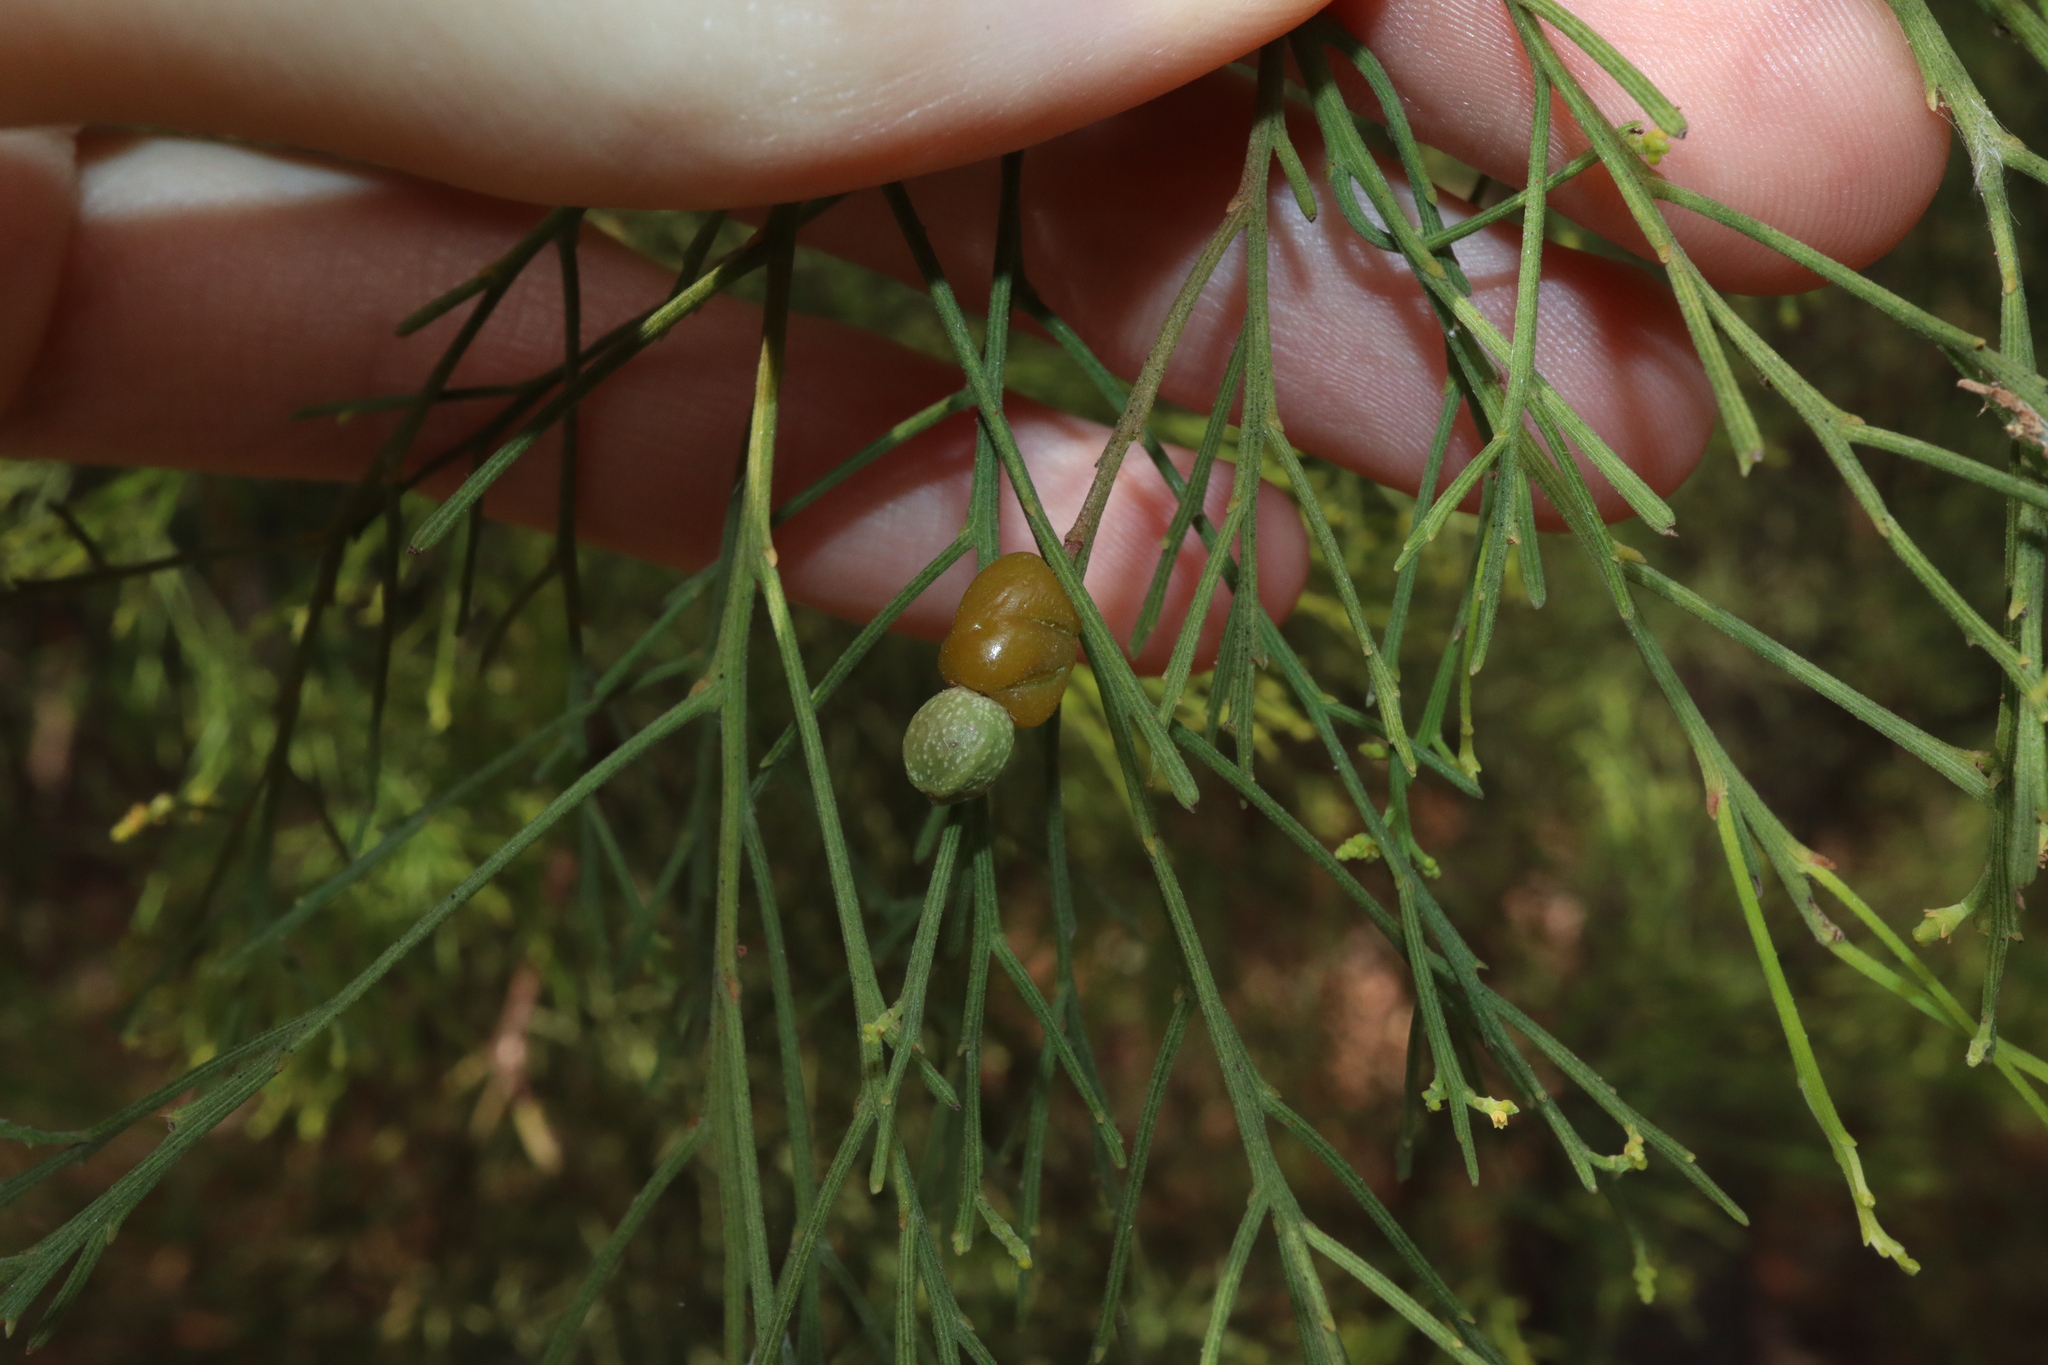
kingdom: Plantae
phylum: Tracheophyta
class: Magnoliopsida
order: Santalales
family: Santalaceae
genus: Exocarpos
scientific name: Exocarpos cupressiformis
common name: Cherry ballart
